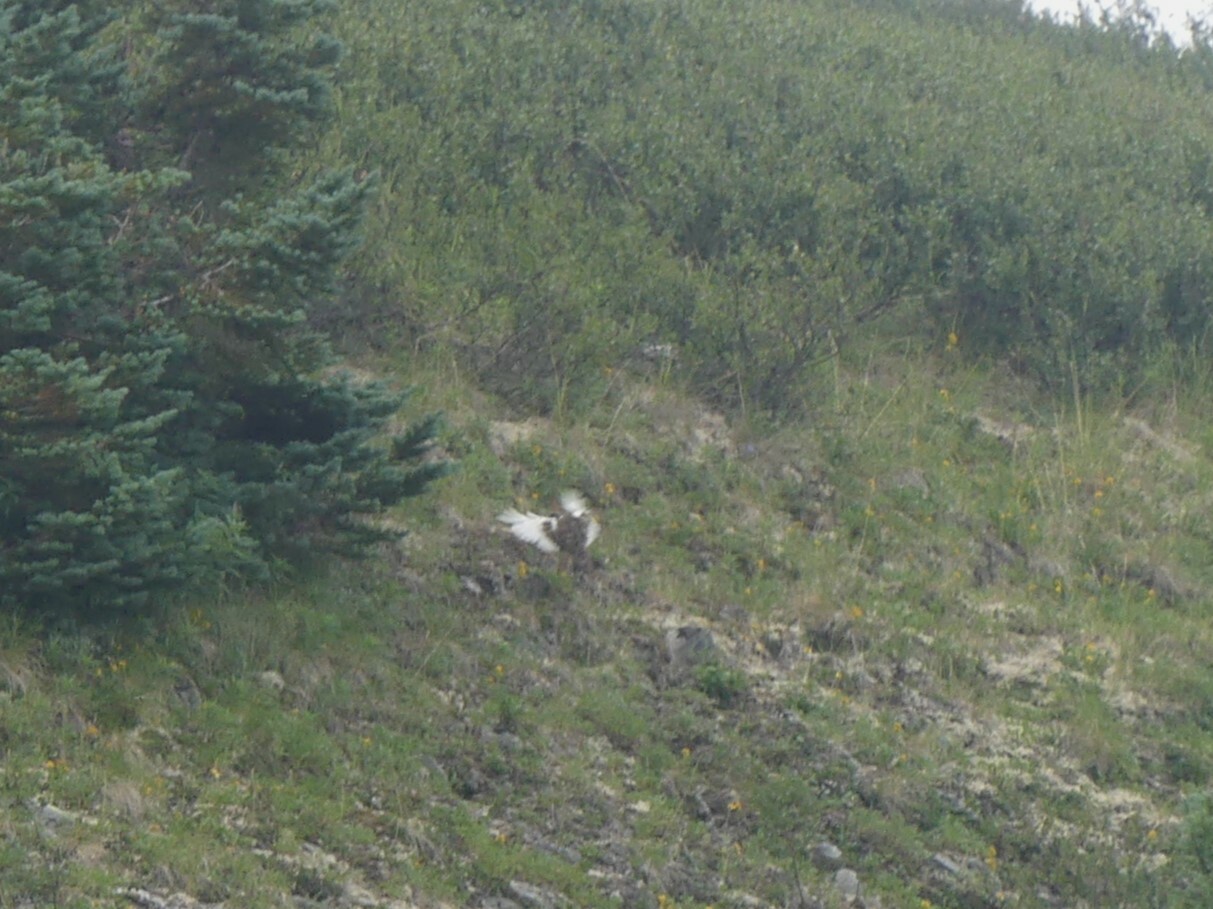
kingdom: Animalia
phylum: Chordata
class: Aves
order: Galliformes
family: Phasianidae
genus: Lagopus
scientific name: Lagopus muta
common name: Rock ptarmigan
